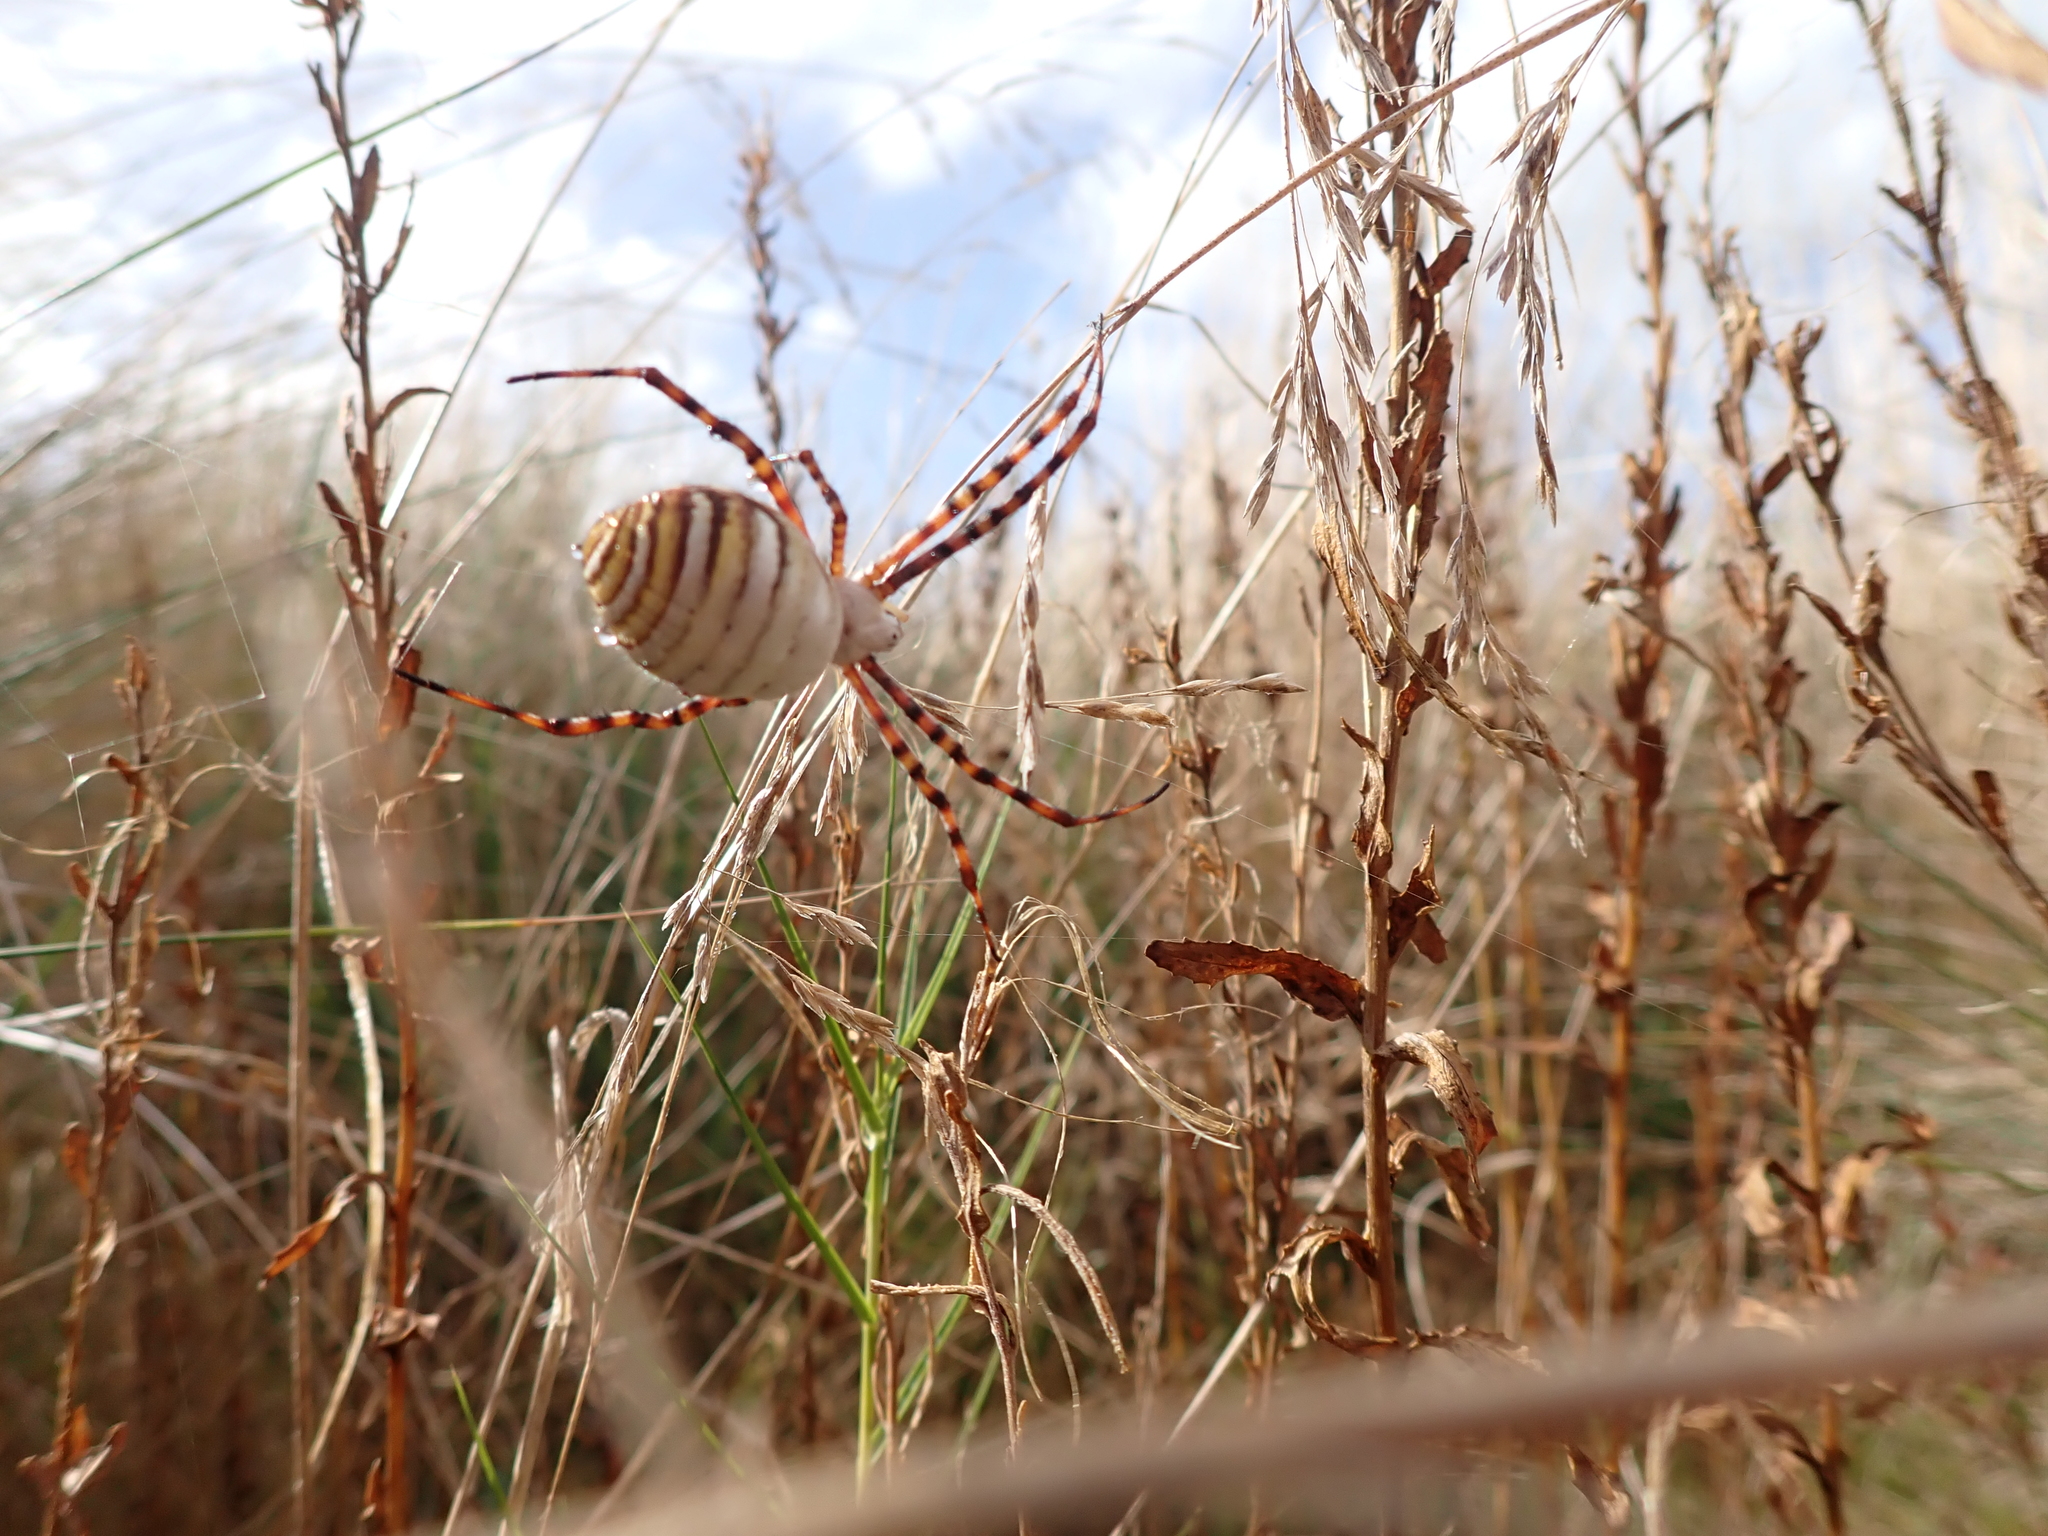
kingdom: Animalia
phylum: Arthropoda
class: Arachnida
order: Araneae
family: Araneidae
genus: Argiope
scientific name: Argiope trifasciata
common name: Banded garden spider
